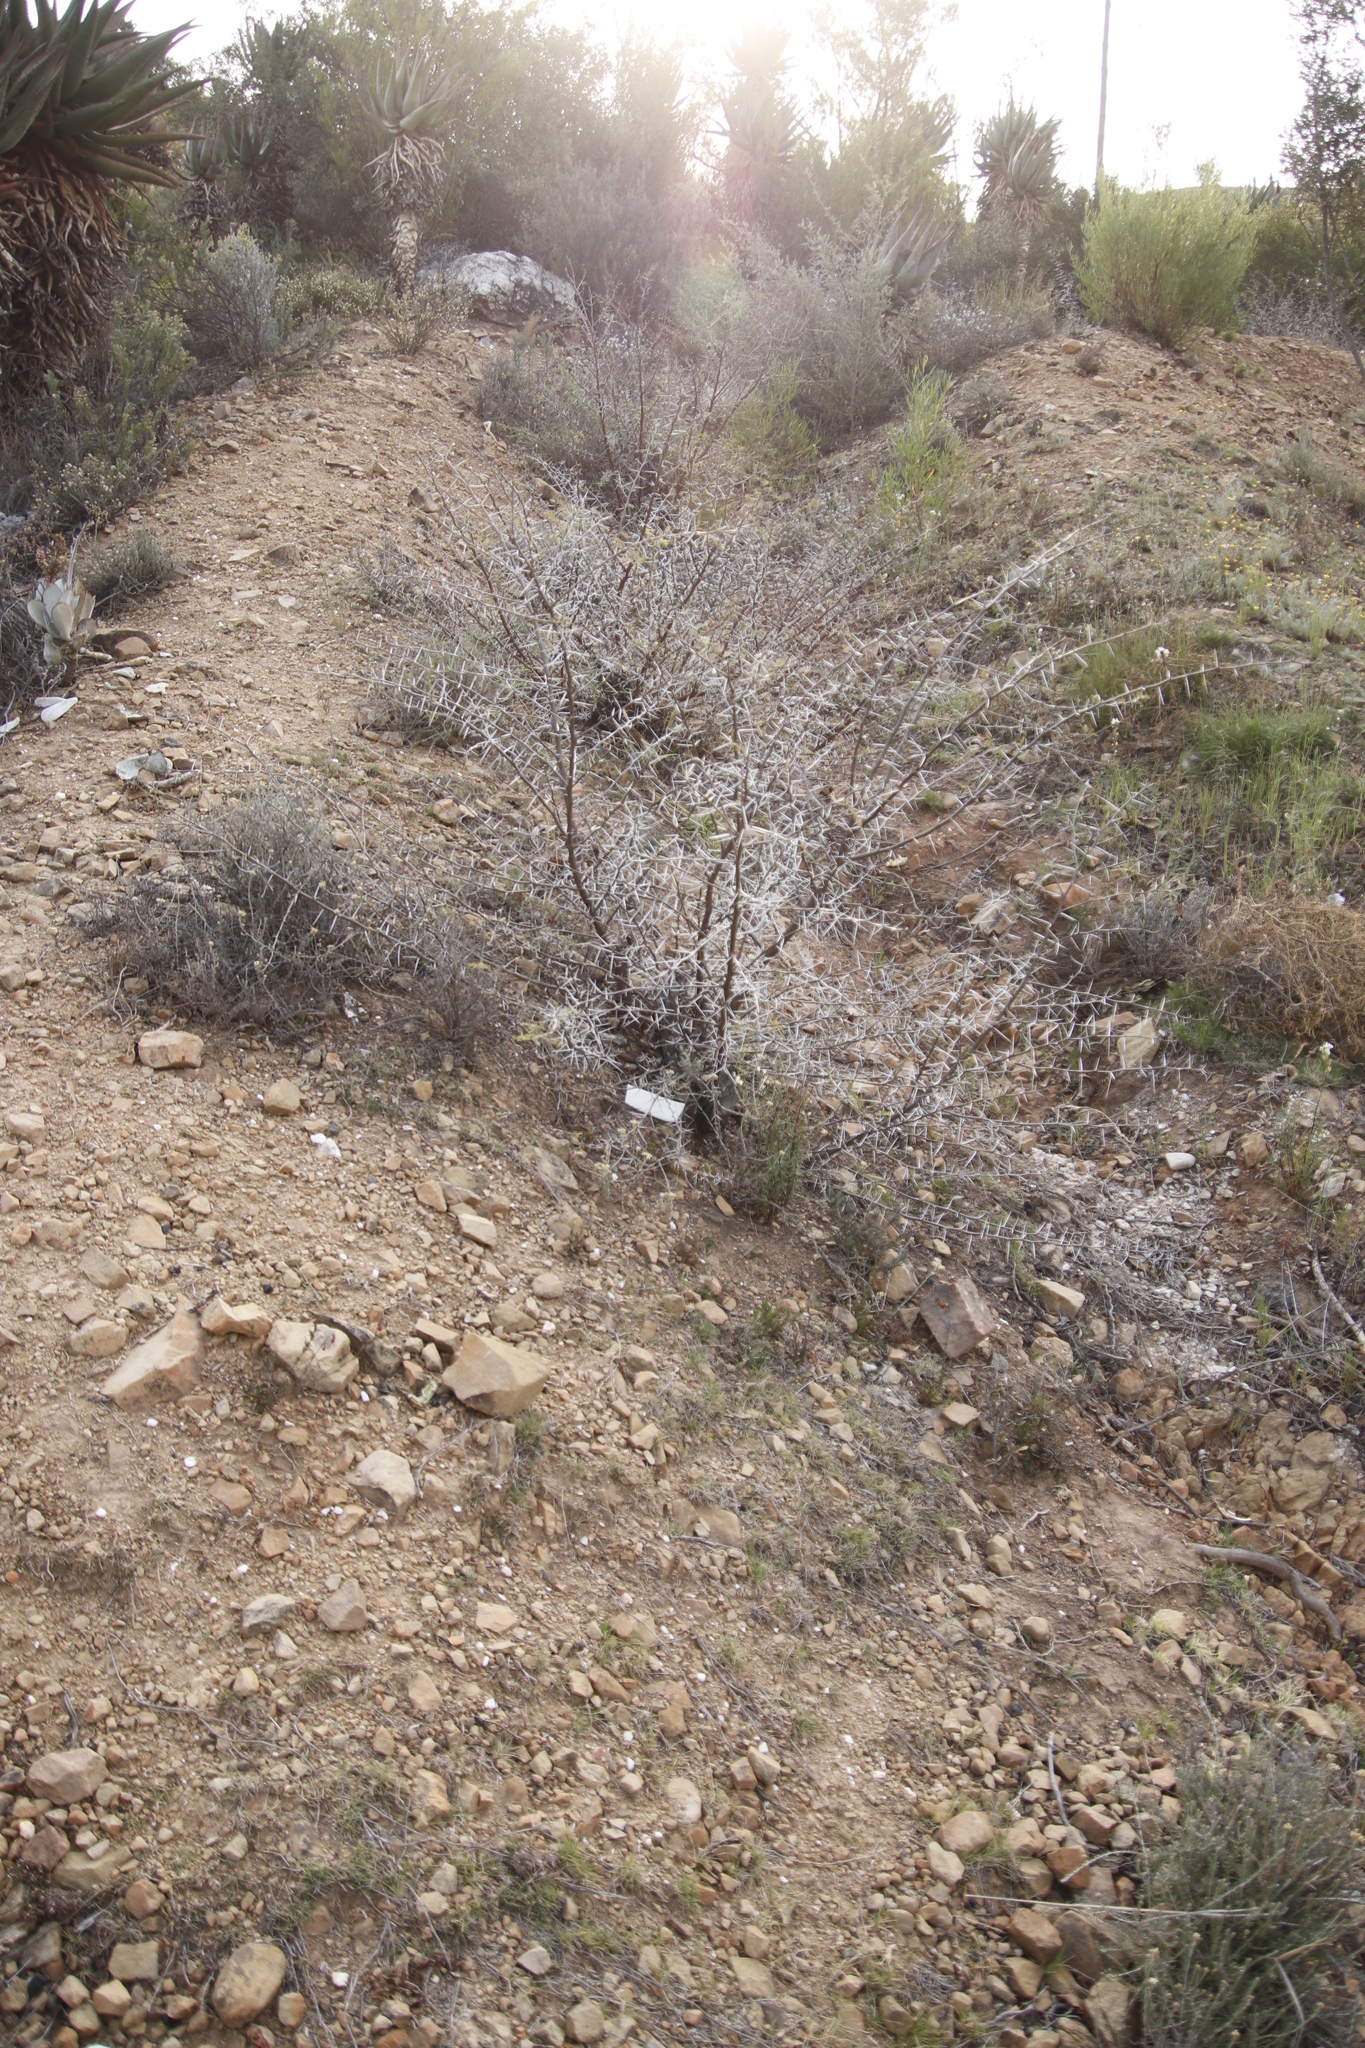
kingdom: Plantae
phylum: Tracheophyta
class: Magnoliopsida
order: Fabales
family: Fabaceae
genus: Vachellia
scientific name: Vachellia karroo
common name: Sweet thorn
